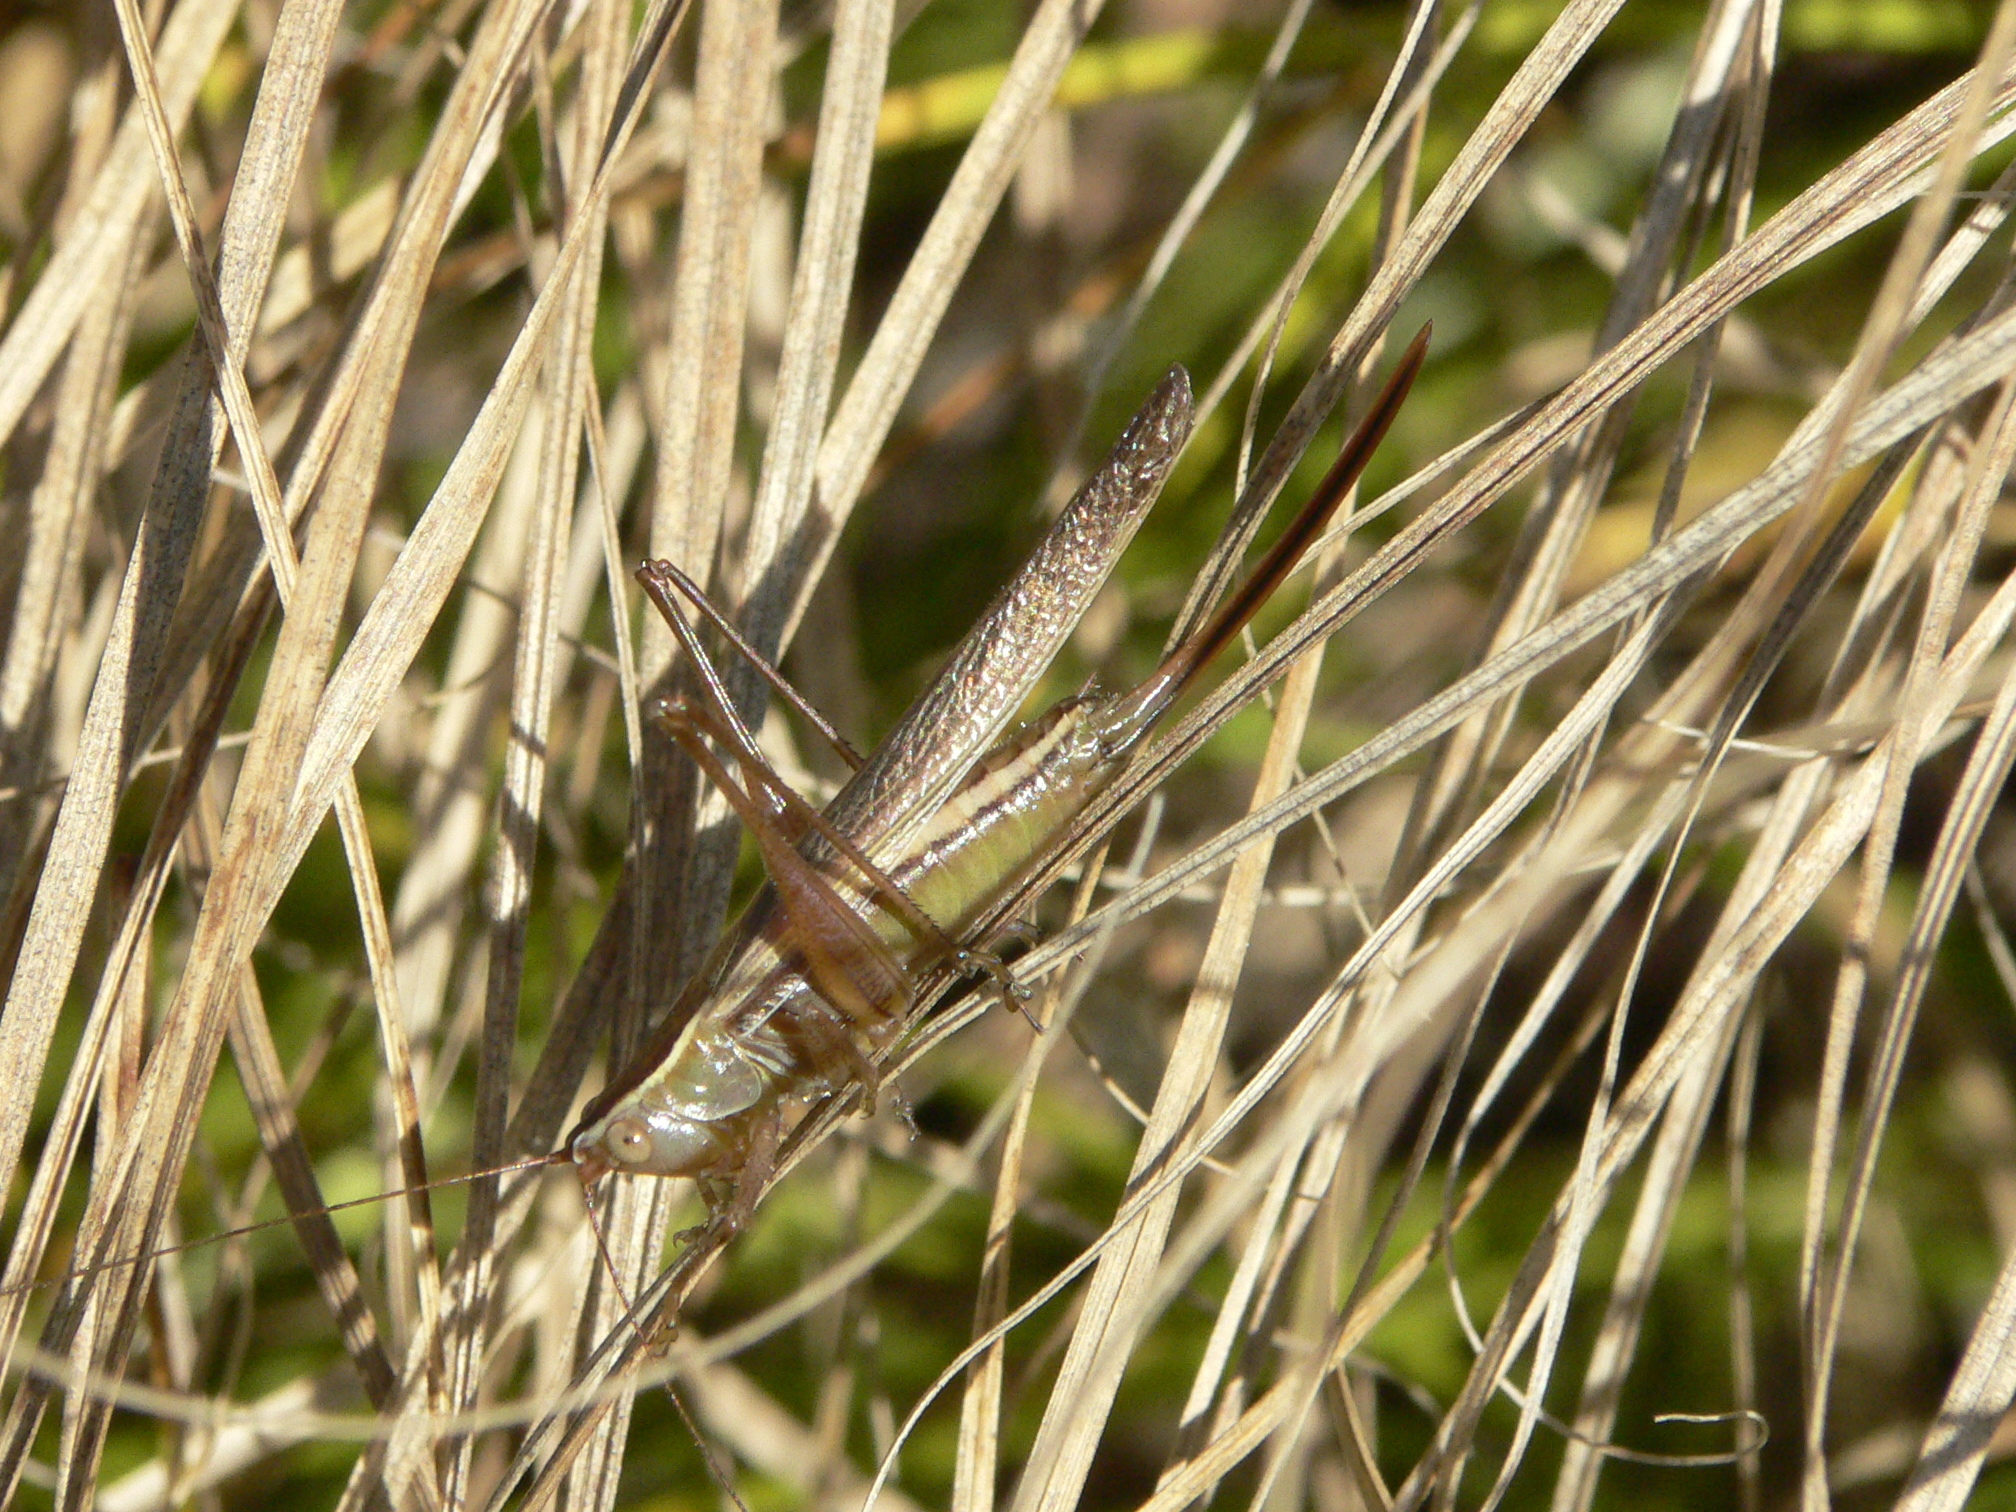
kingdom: Animalia
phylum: Arthropoda
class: Insecta
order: Orthoptera
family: Tettigoniidae
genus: Conocephalus
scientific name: Conocephalus saltans
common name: Prairie meadow katydid
